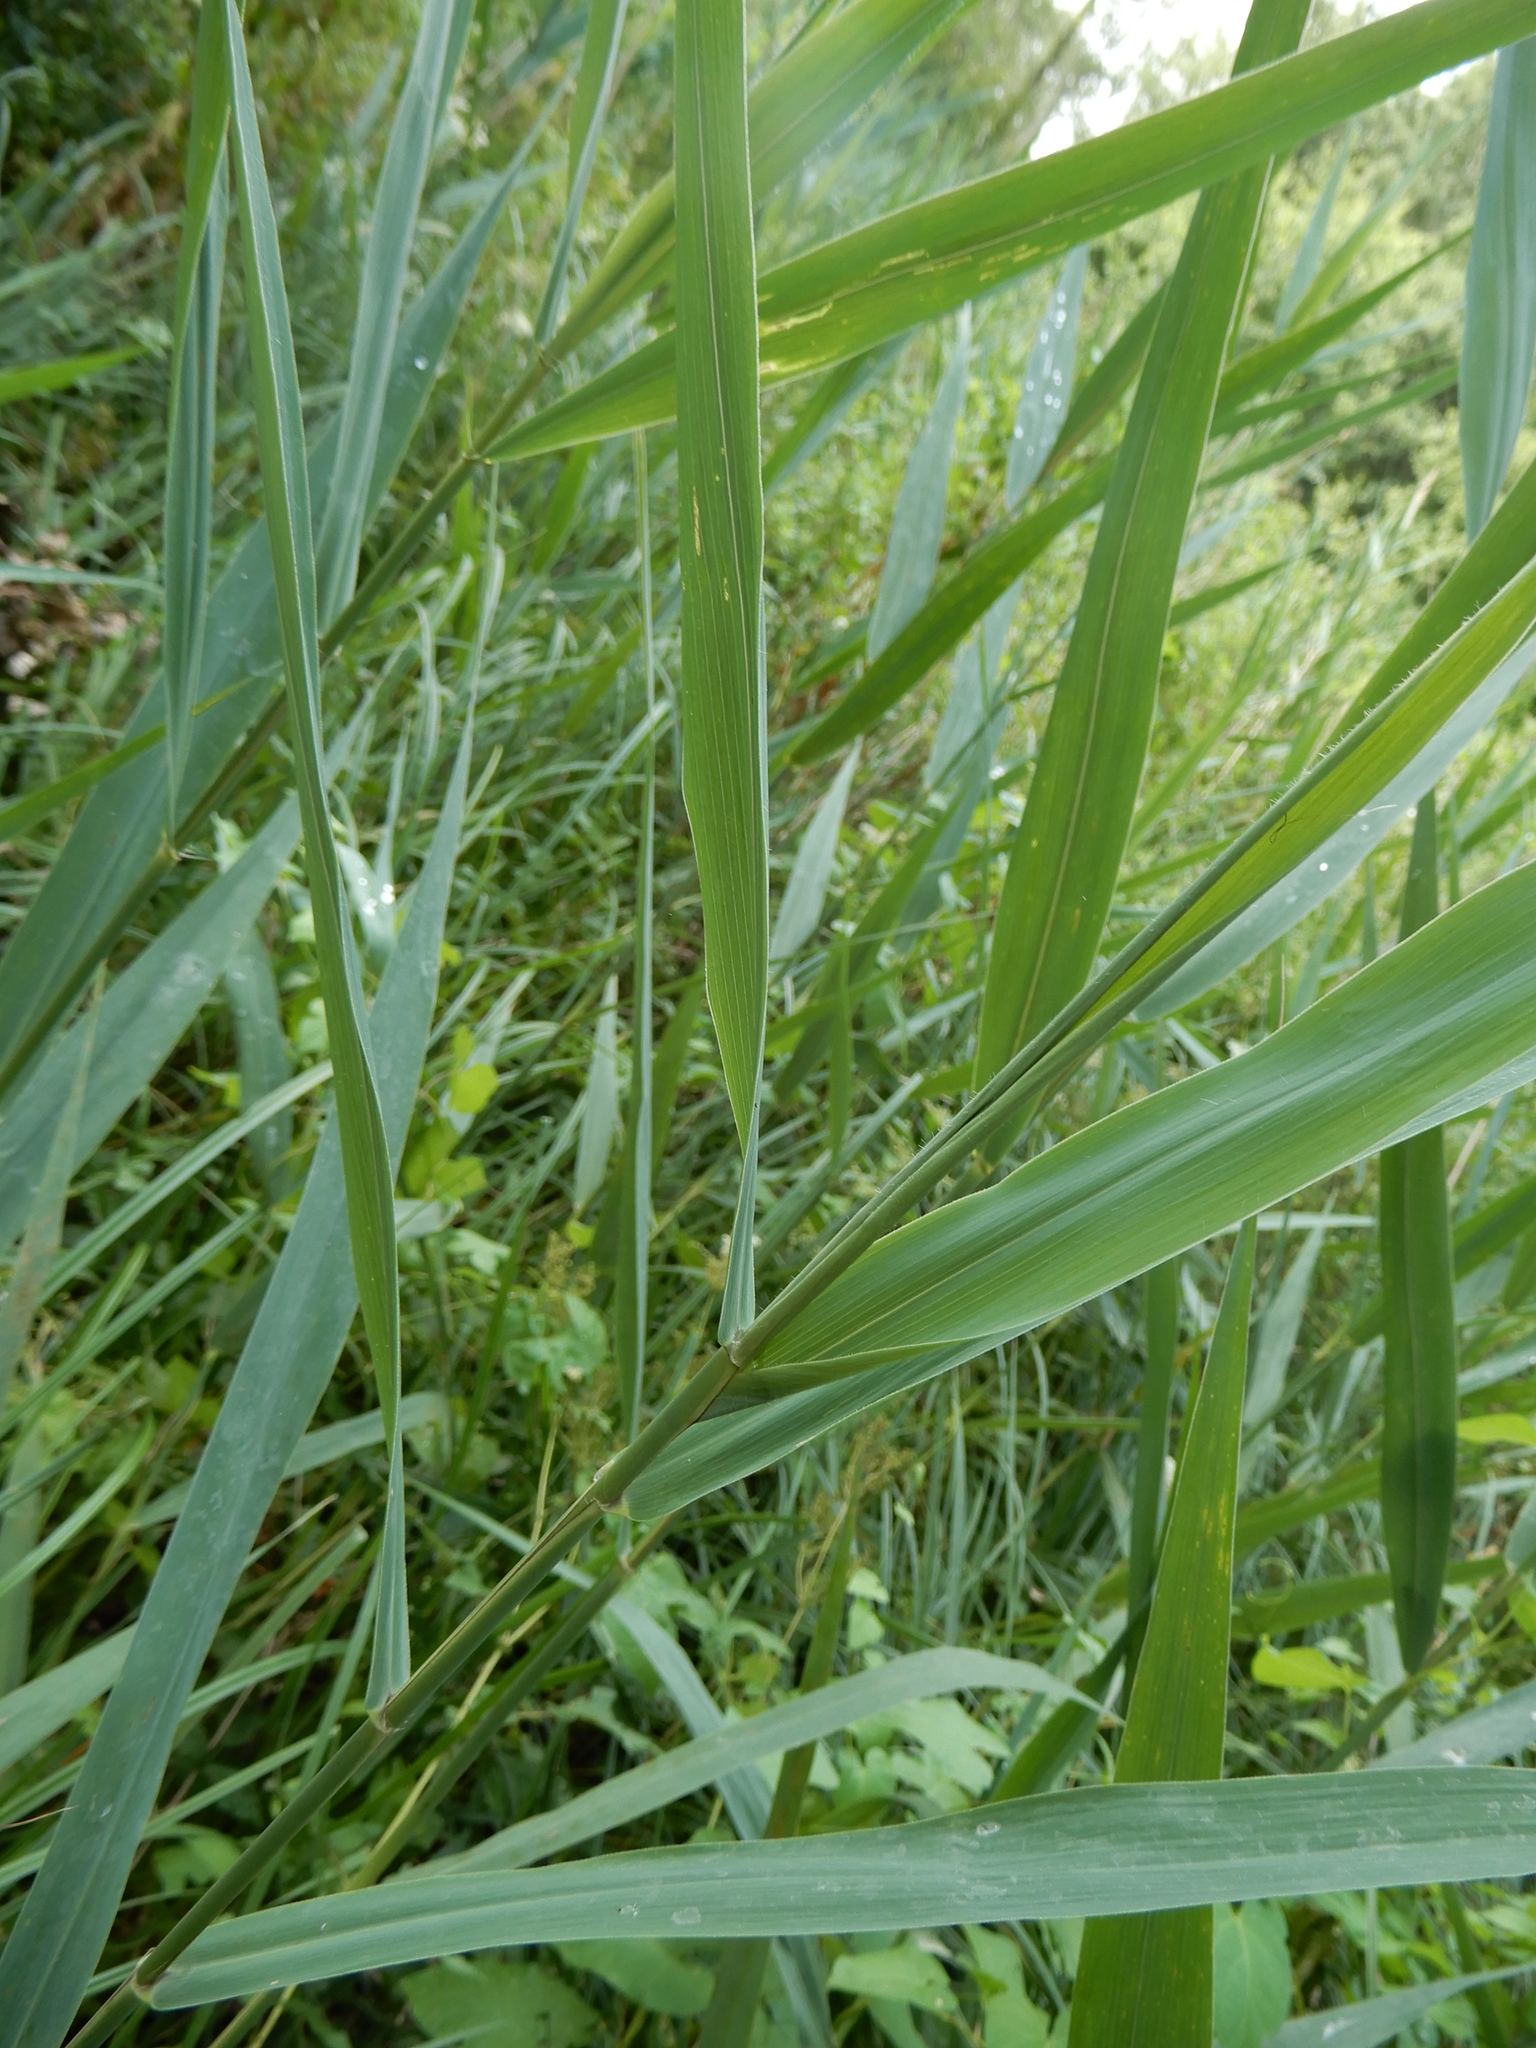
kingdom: Plantae
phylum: Tracheophyta
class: Liliopsida
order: Poales
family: Poaceae
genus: Phragmites
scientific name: Phragmites australis
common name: Common reed
